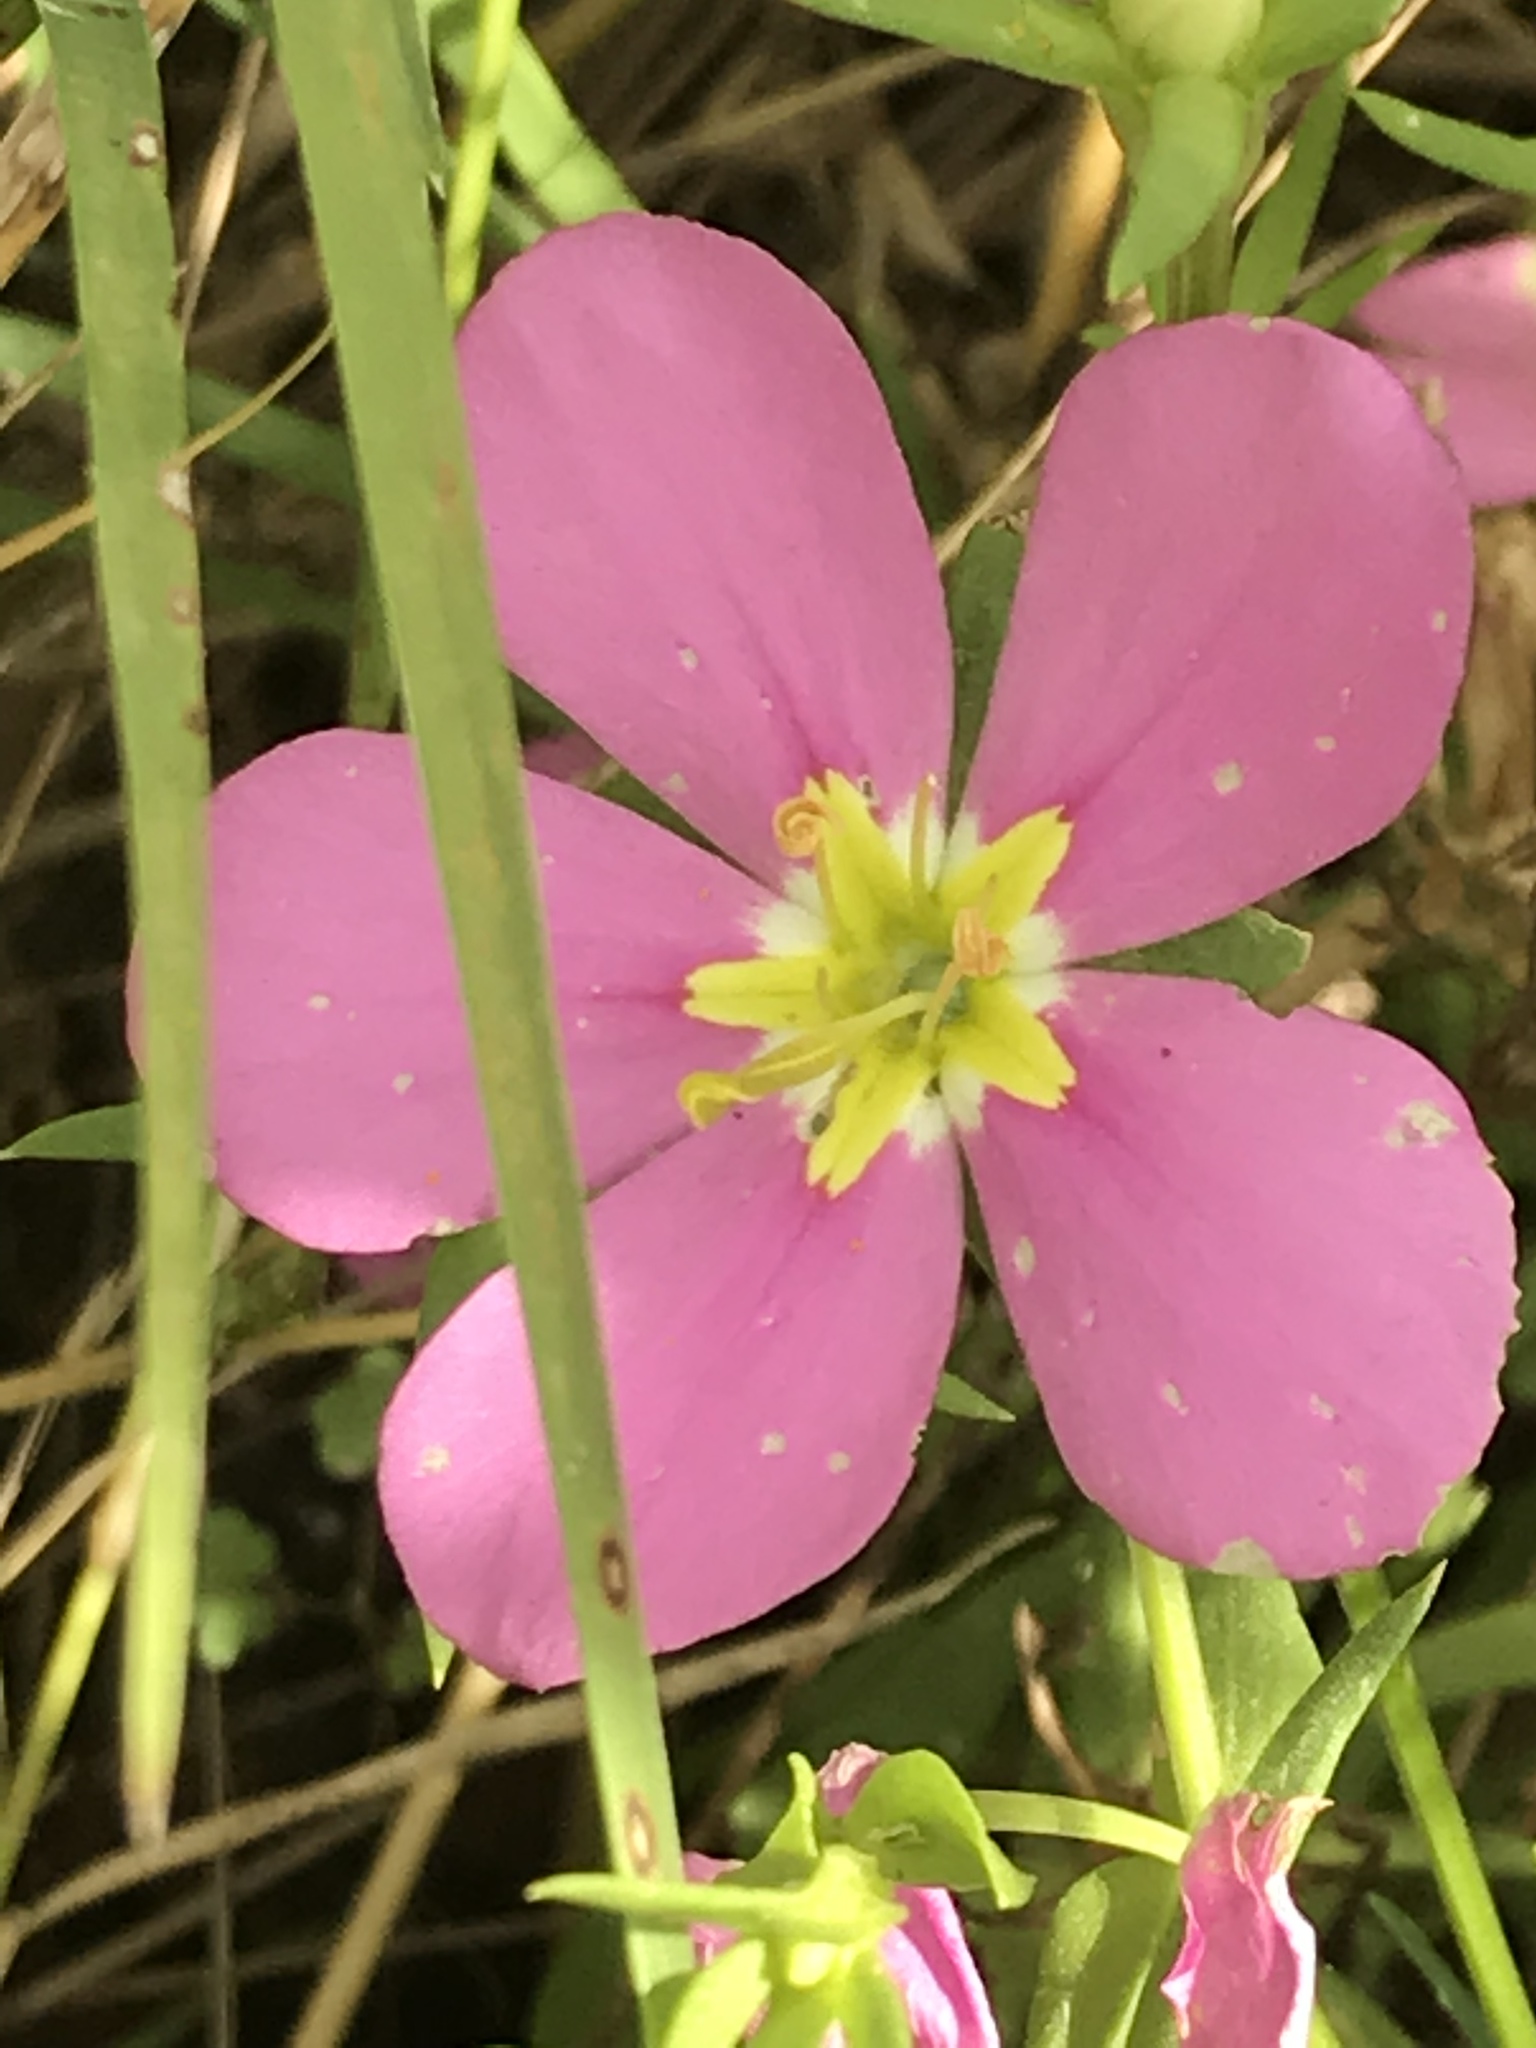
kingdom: Plantae
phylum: Tracheophyta
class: Magnoliopsida
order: Gentianales
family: Gentianaceae
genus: Sabatia
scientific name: Sabatia campestris
